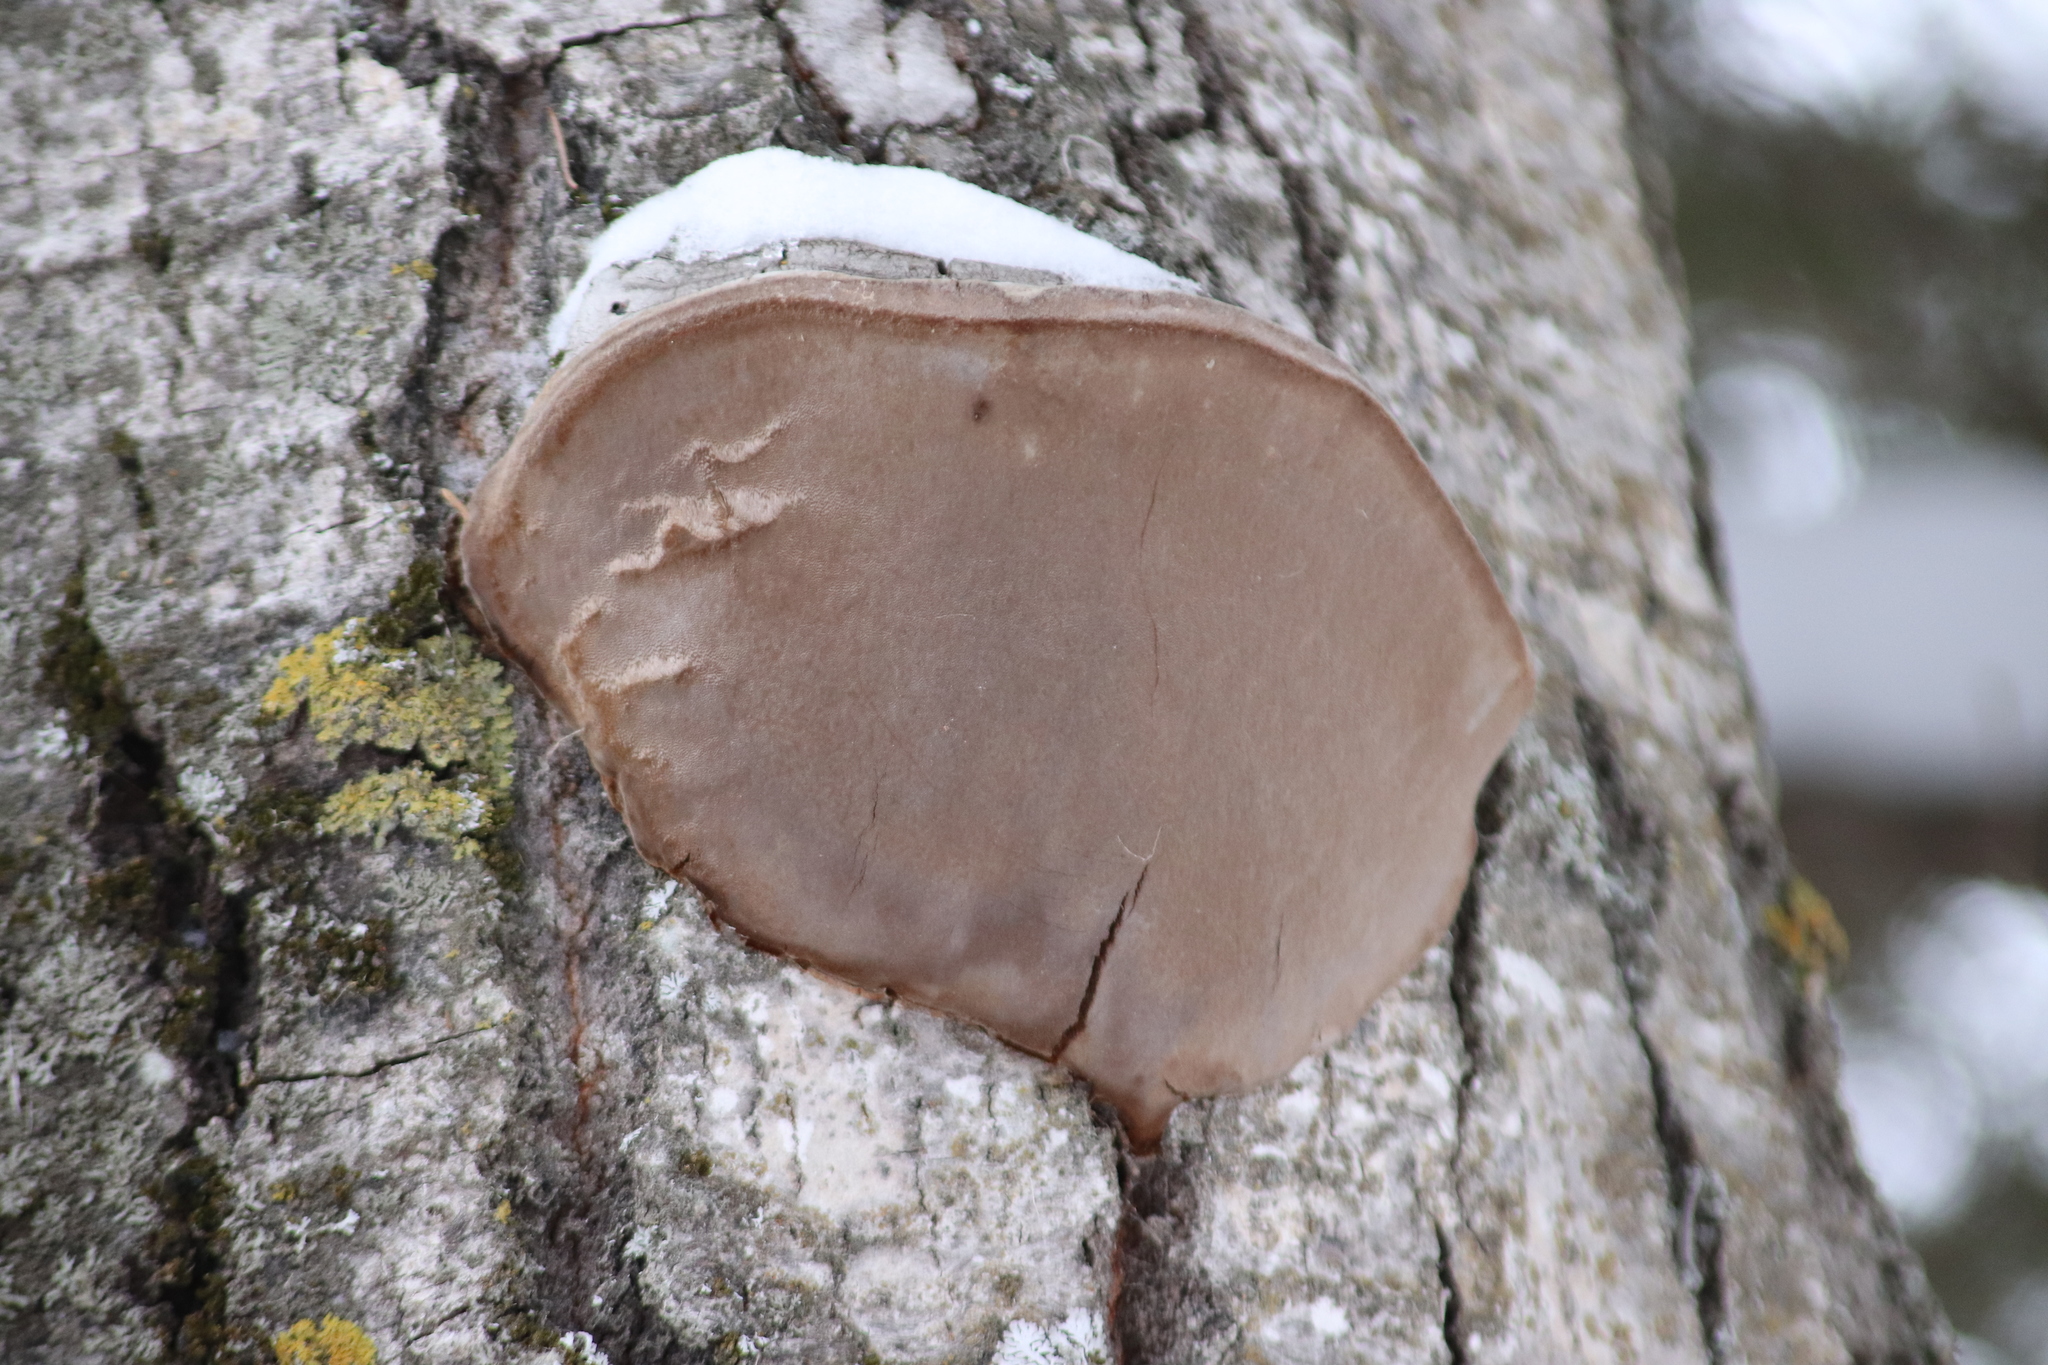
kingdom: Fungi
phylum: Basidiomycota
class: Agaricomycetes
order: Hymenochaetales
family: Hymenochaetaceae
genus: Phellinus
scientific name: Phellinus tremulae
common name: Aspen bracket
